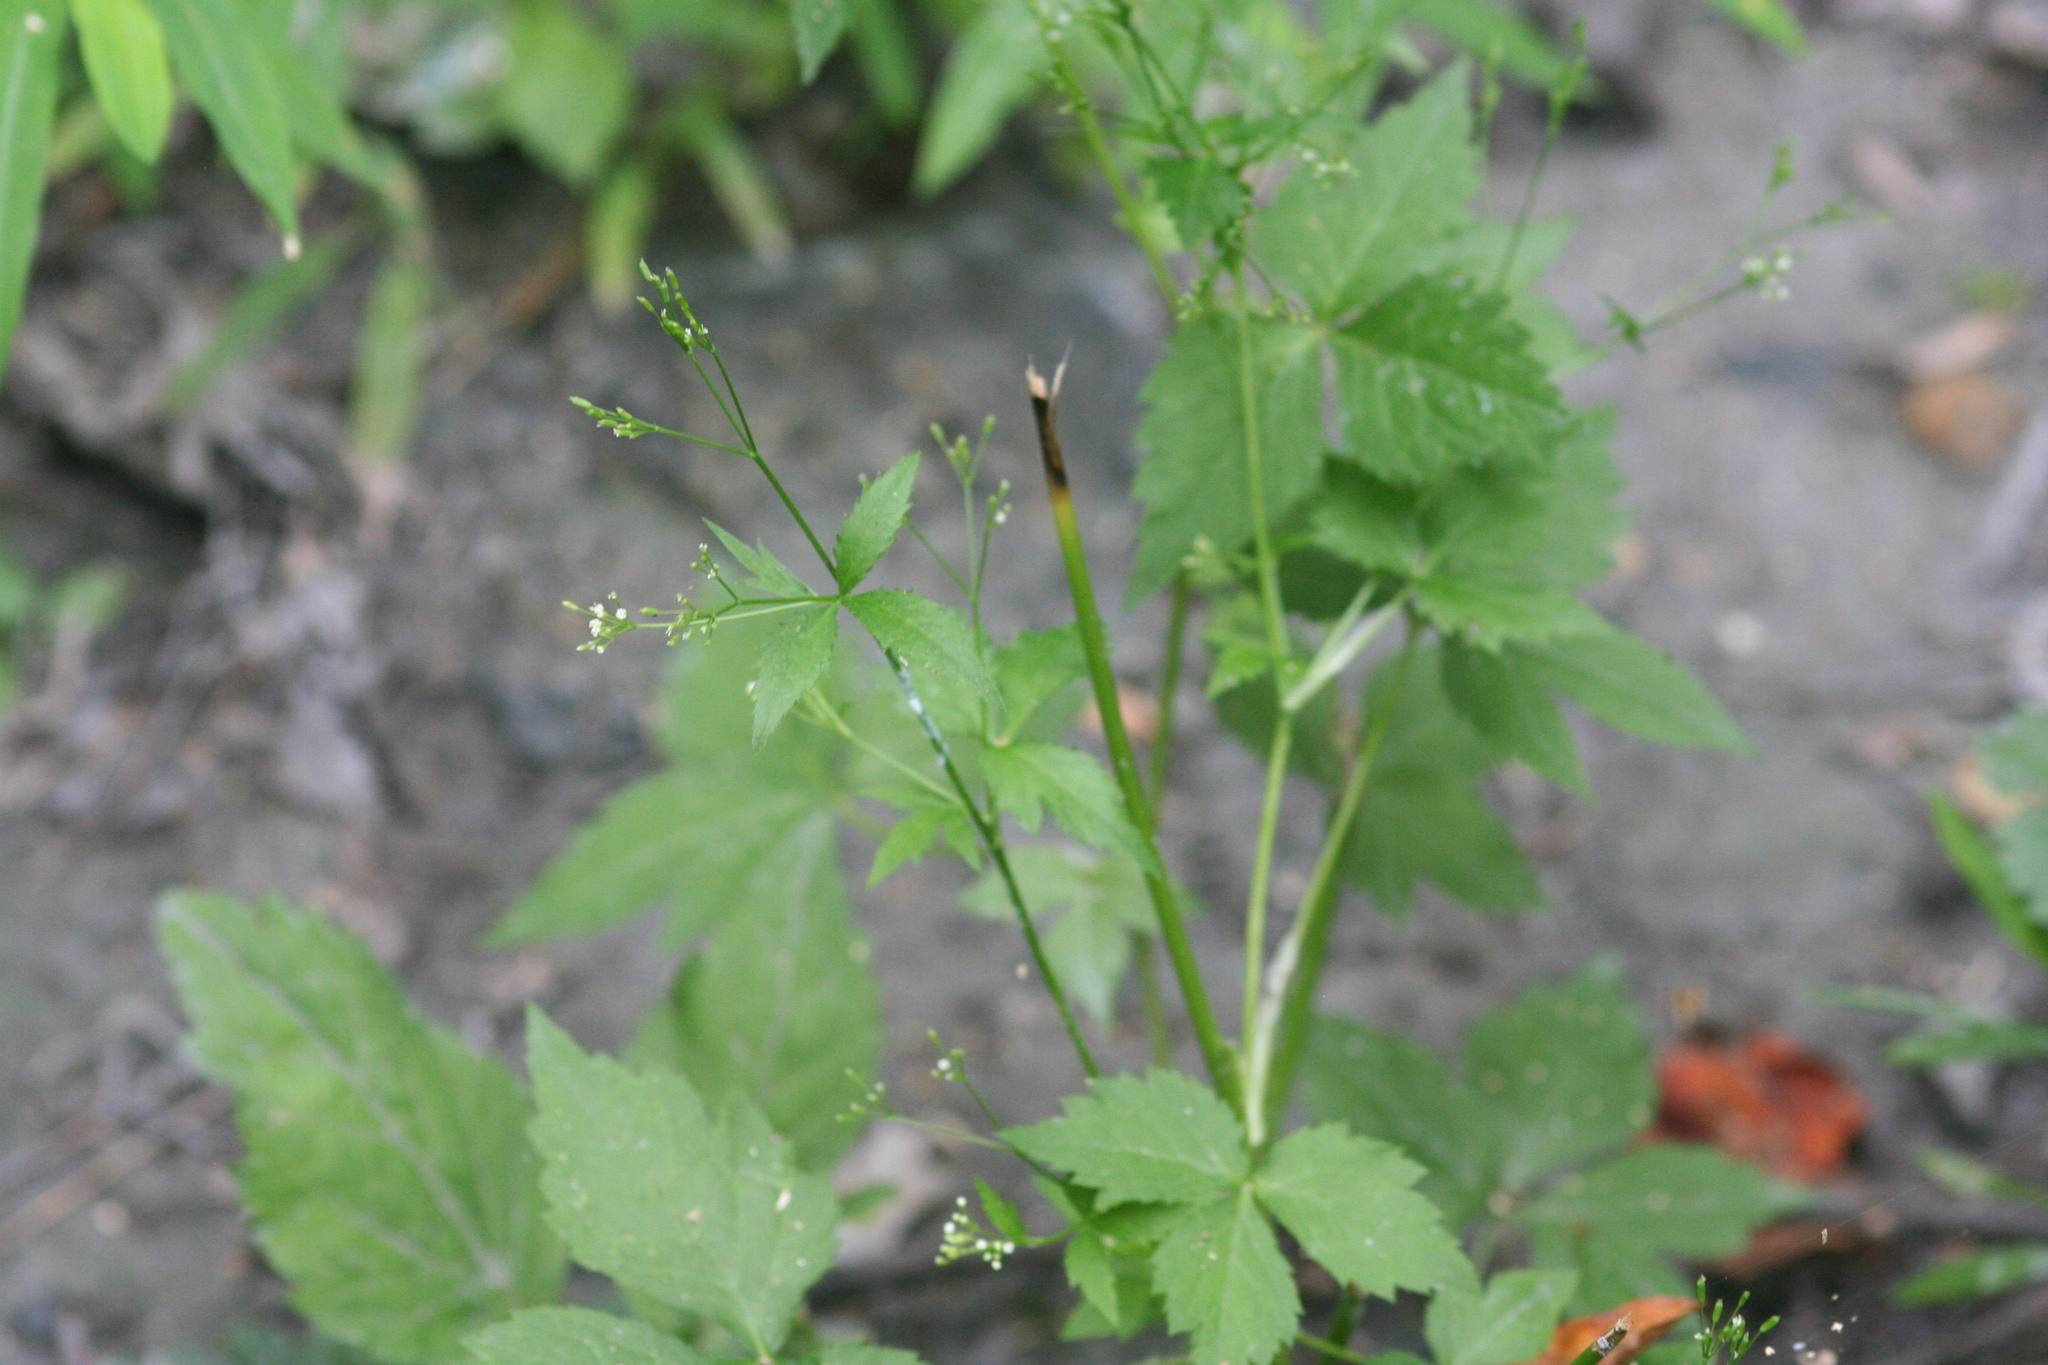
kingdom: Plantae
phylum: Tracheophyta
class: Magnoliopsida
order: Apiales
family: Apiaceae
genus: Cryptotaenia
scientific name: Cryptotaenia canadensis
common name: Honewort
